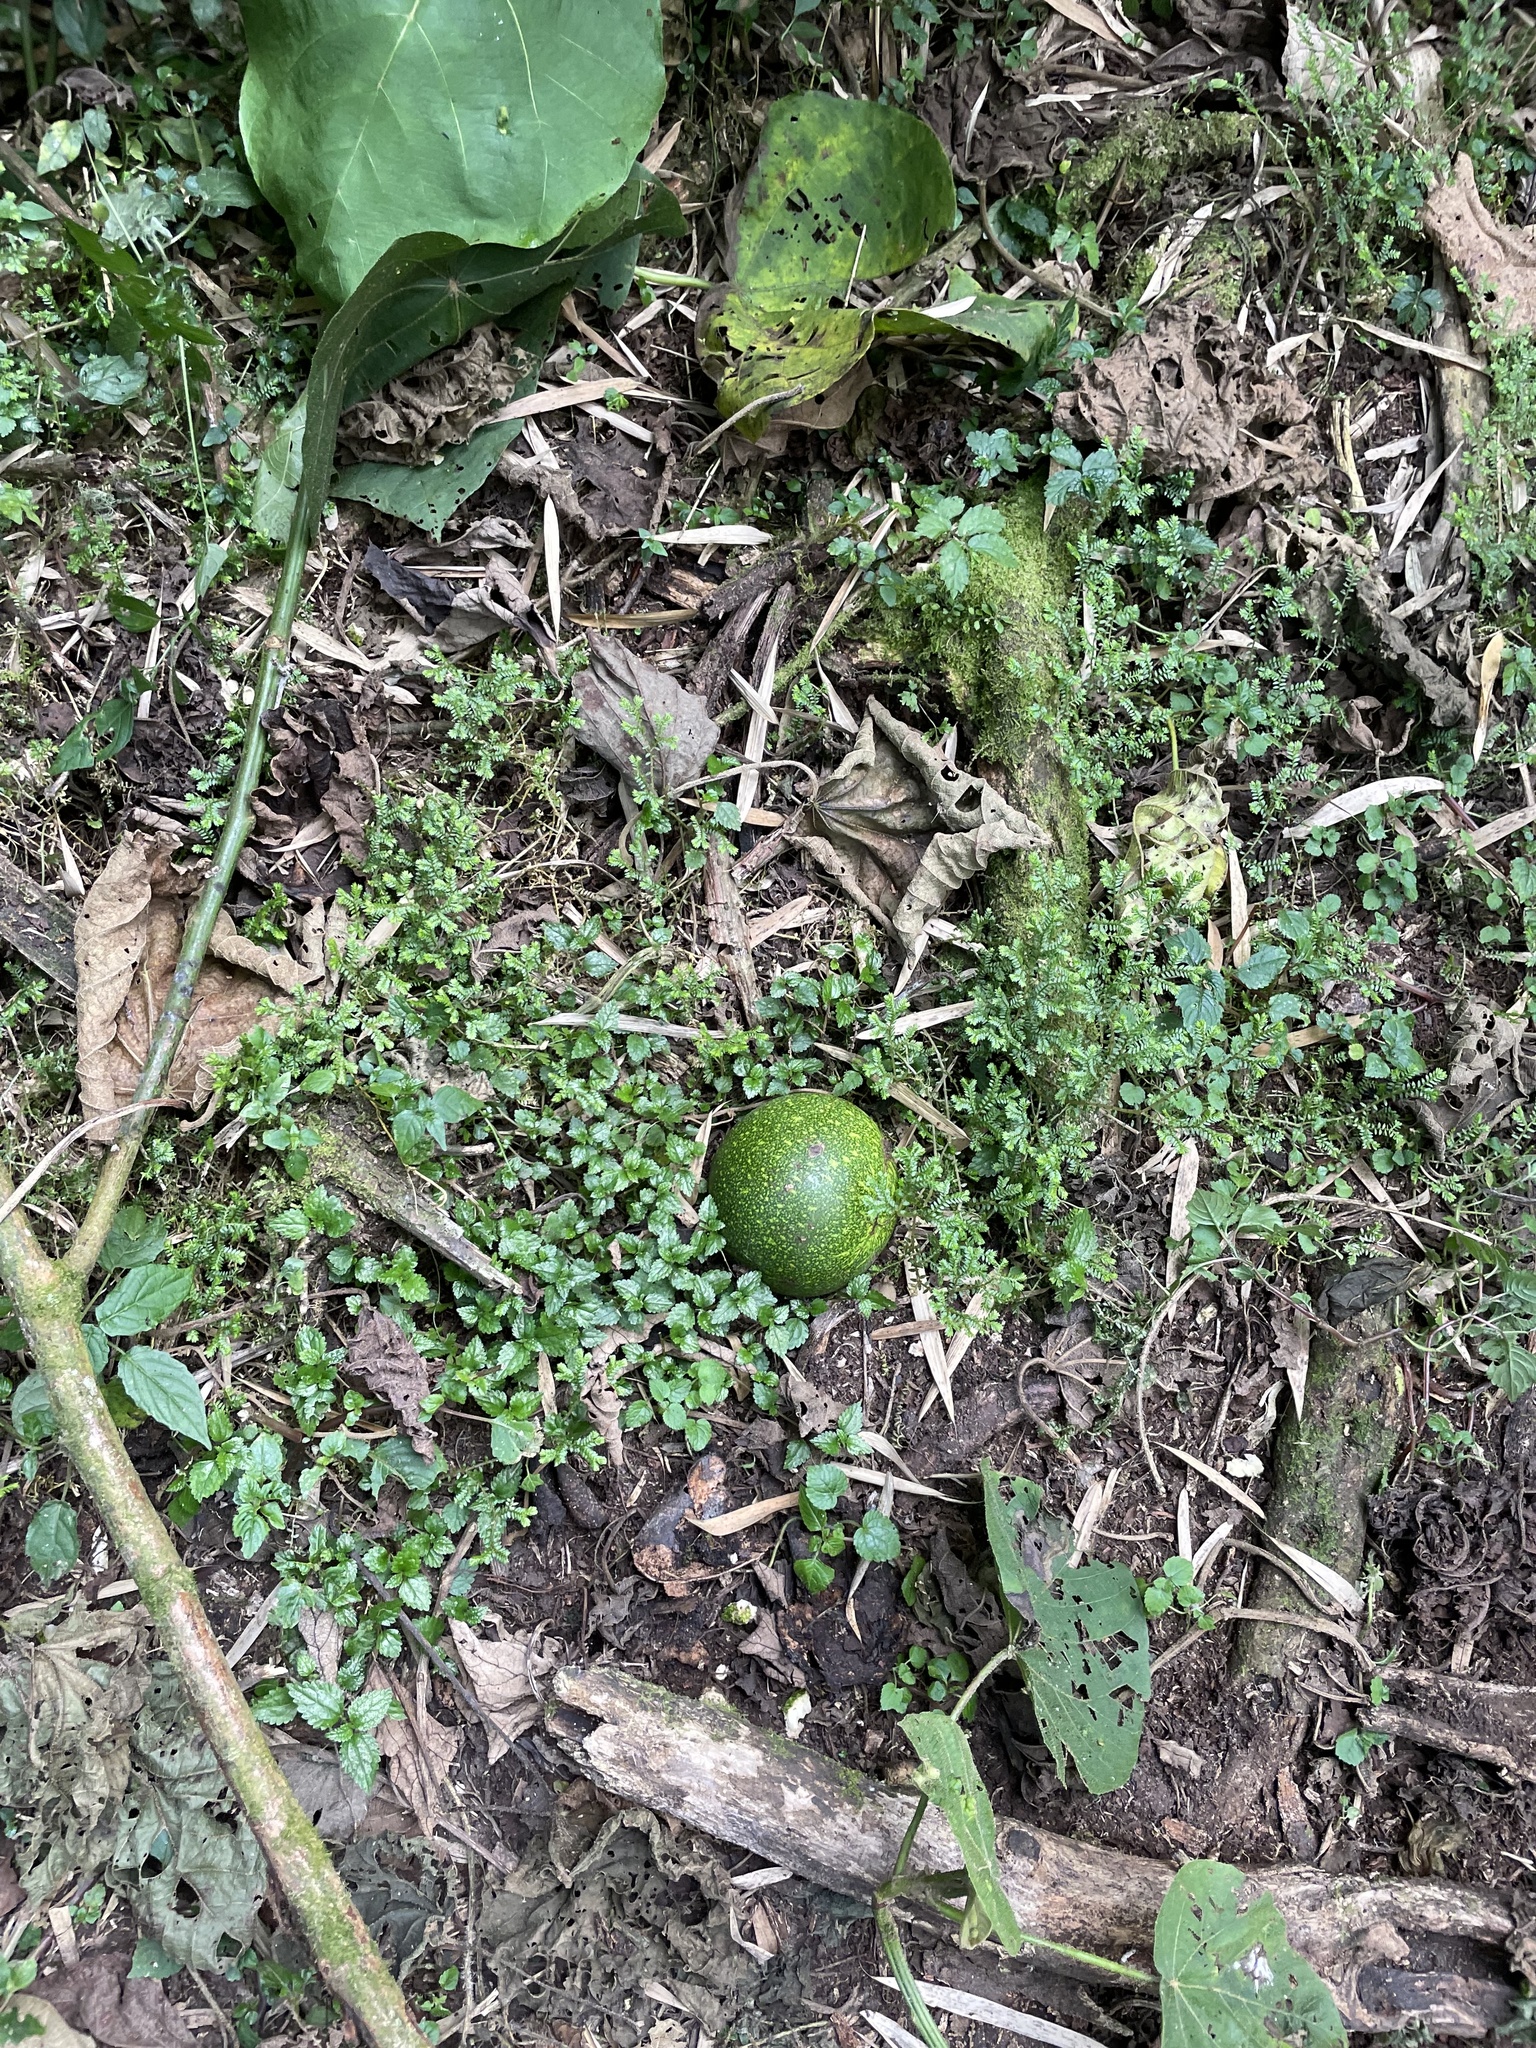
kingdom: Plantae
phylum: Tracheophyta
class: Magnoliopsida
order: Laurales
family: Lauraceae
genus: Persea
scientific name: Persea americana
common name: Avocado
